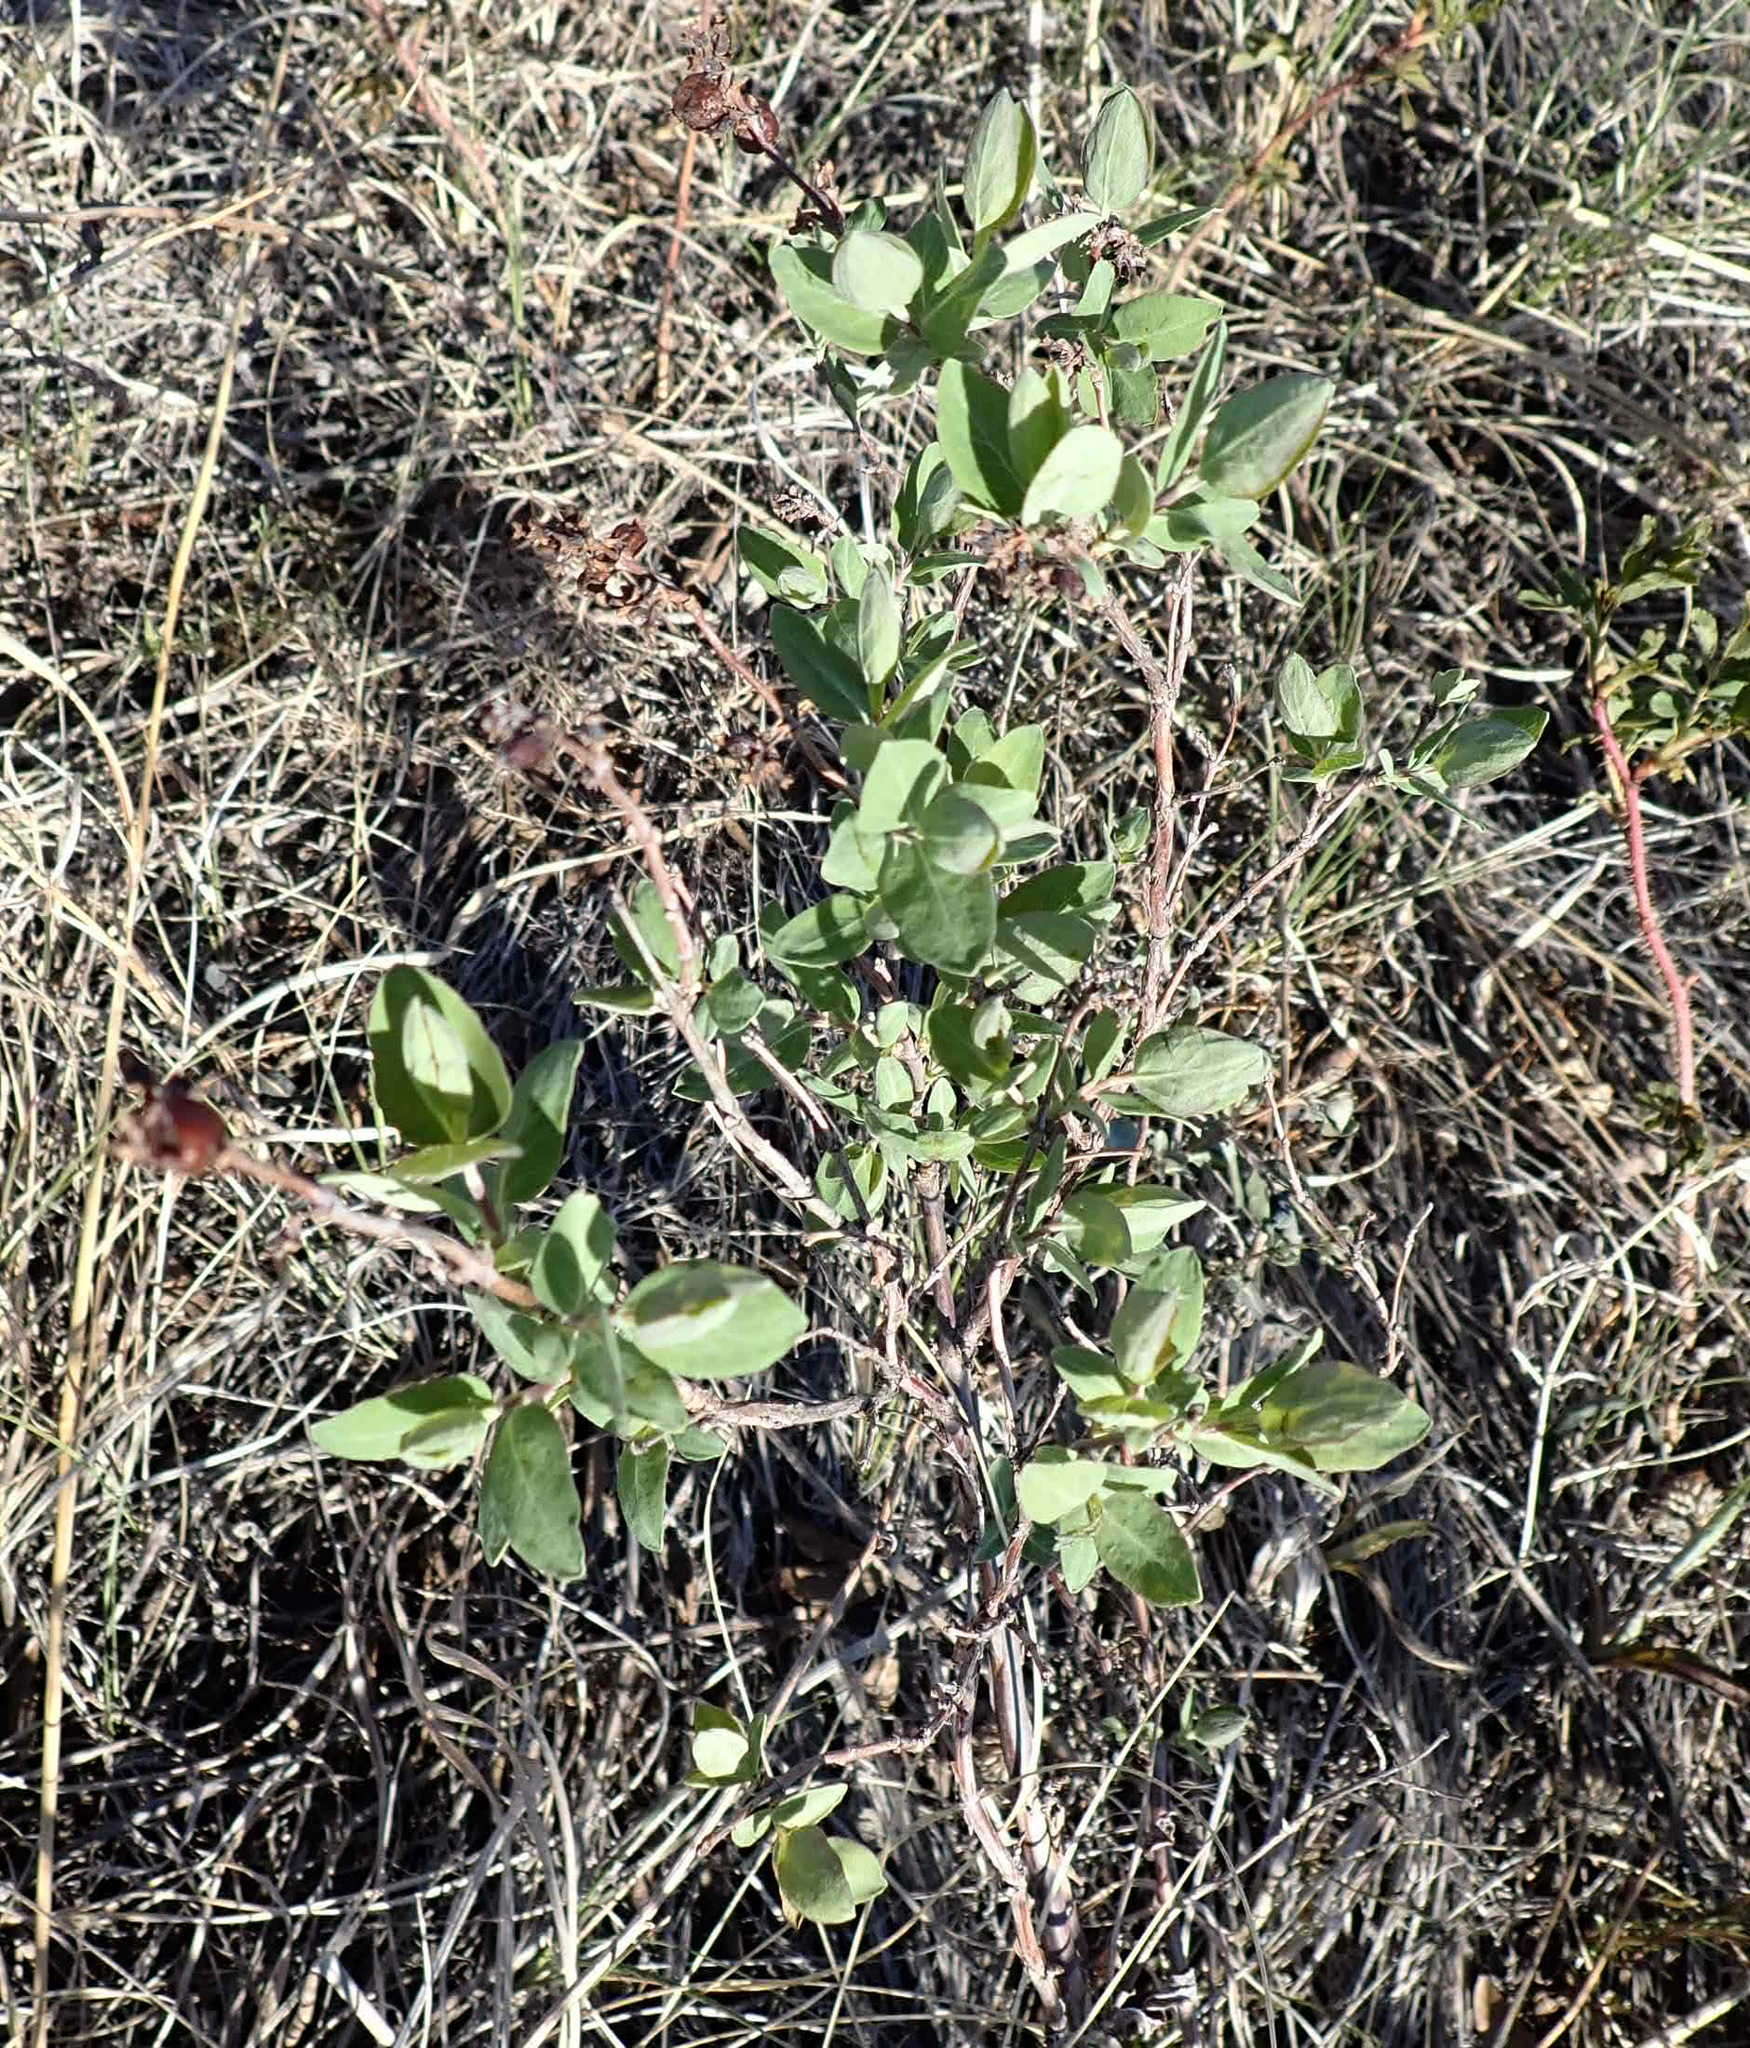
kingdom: Plantae
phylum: Tracheophyta
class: Magnoliopsida
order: Dipsacales
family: Caprifoliaceae
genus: Symphoricarpos
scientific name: Symphoricarpos occidentalis
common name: Wolfberry
